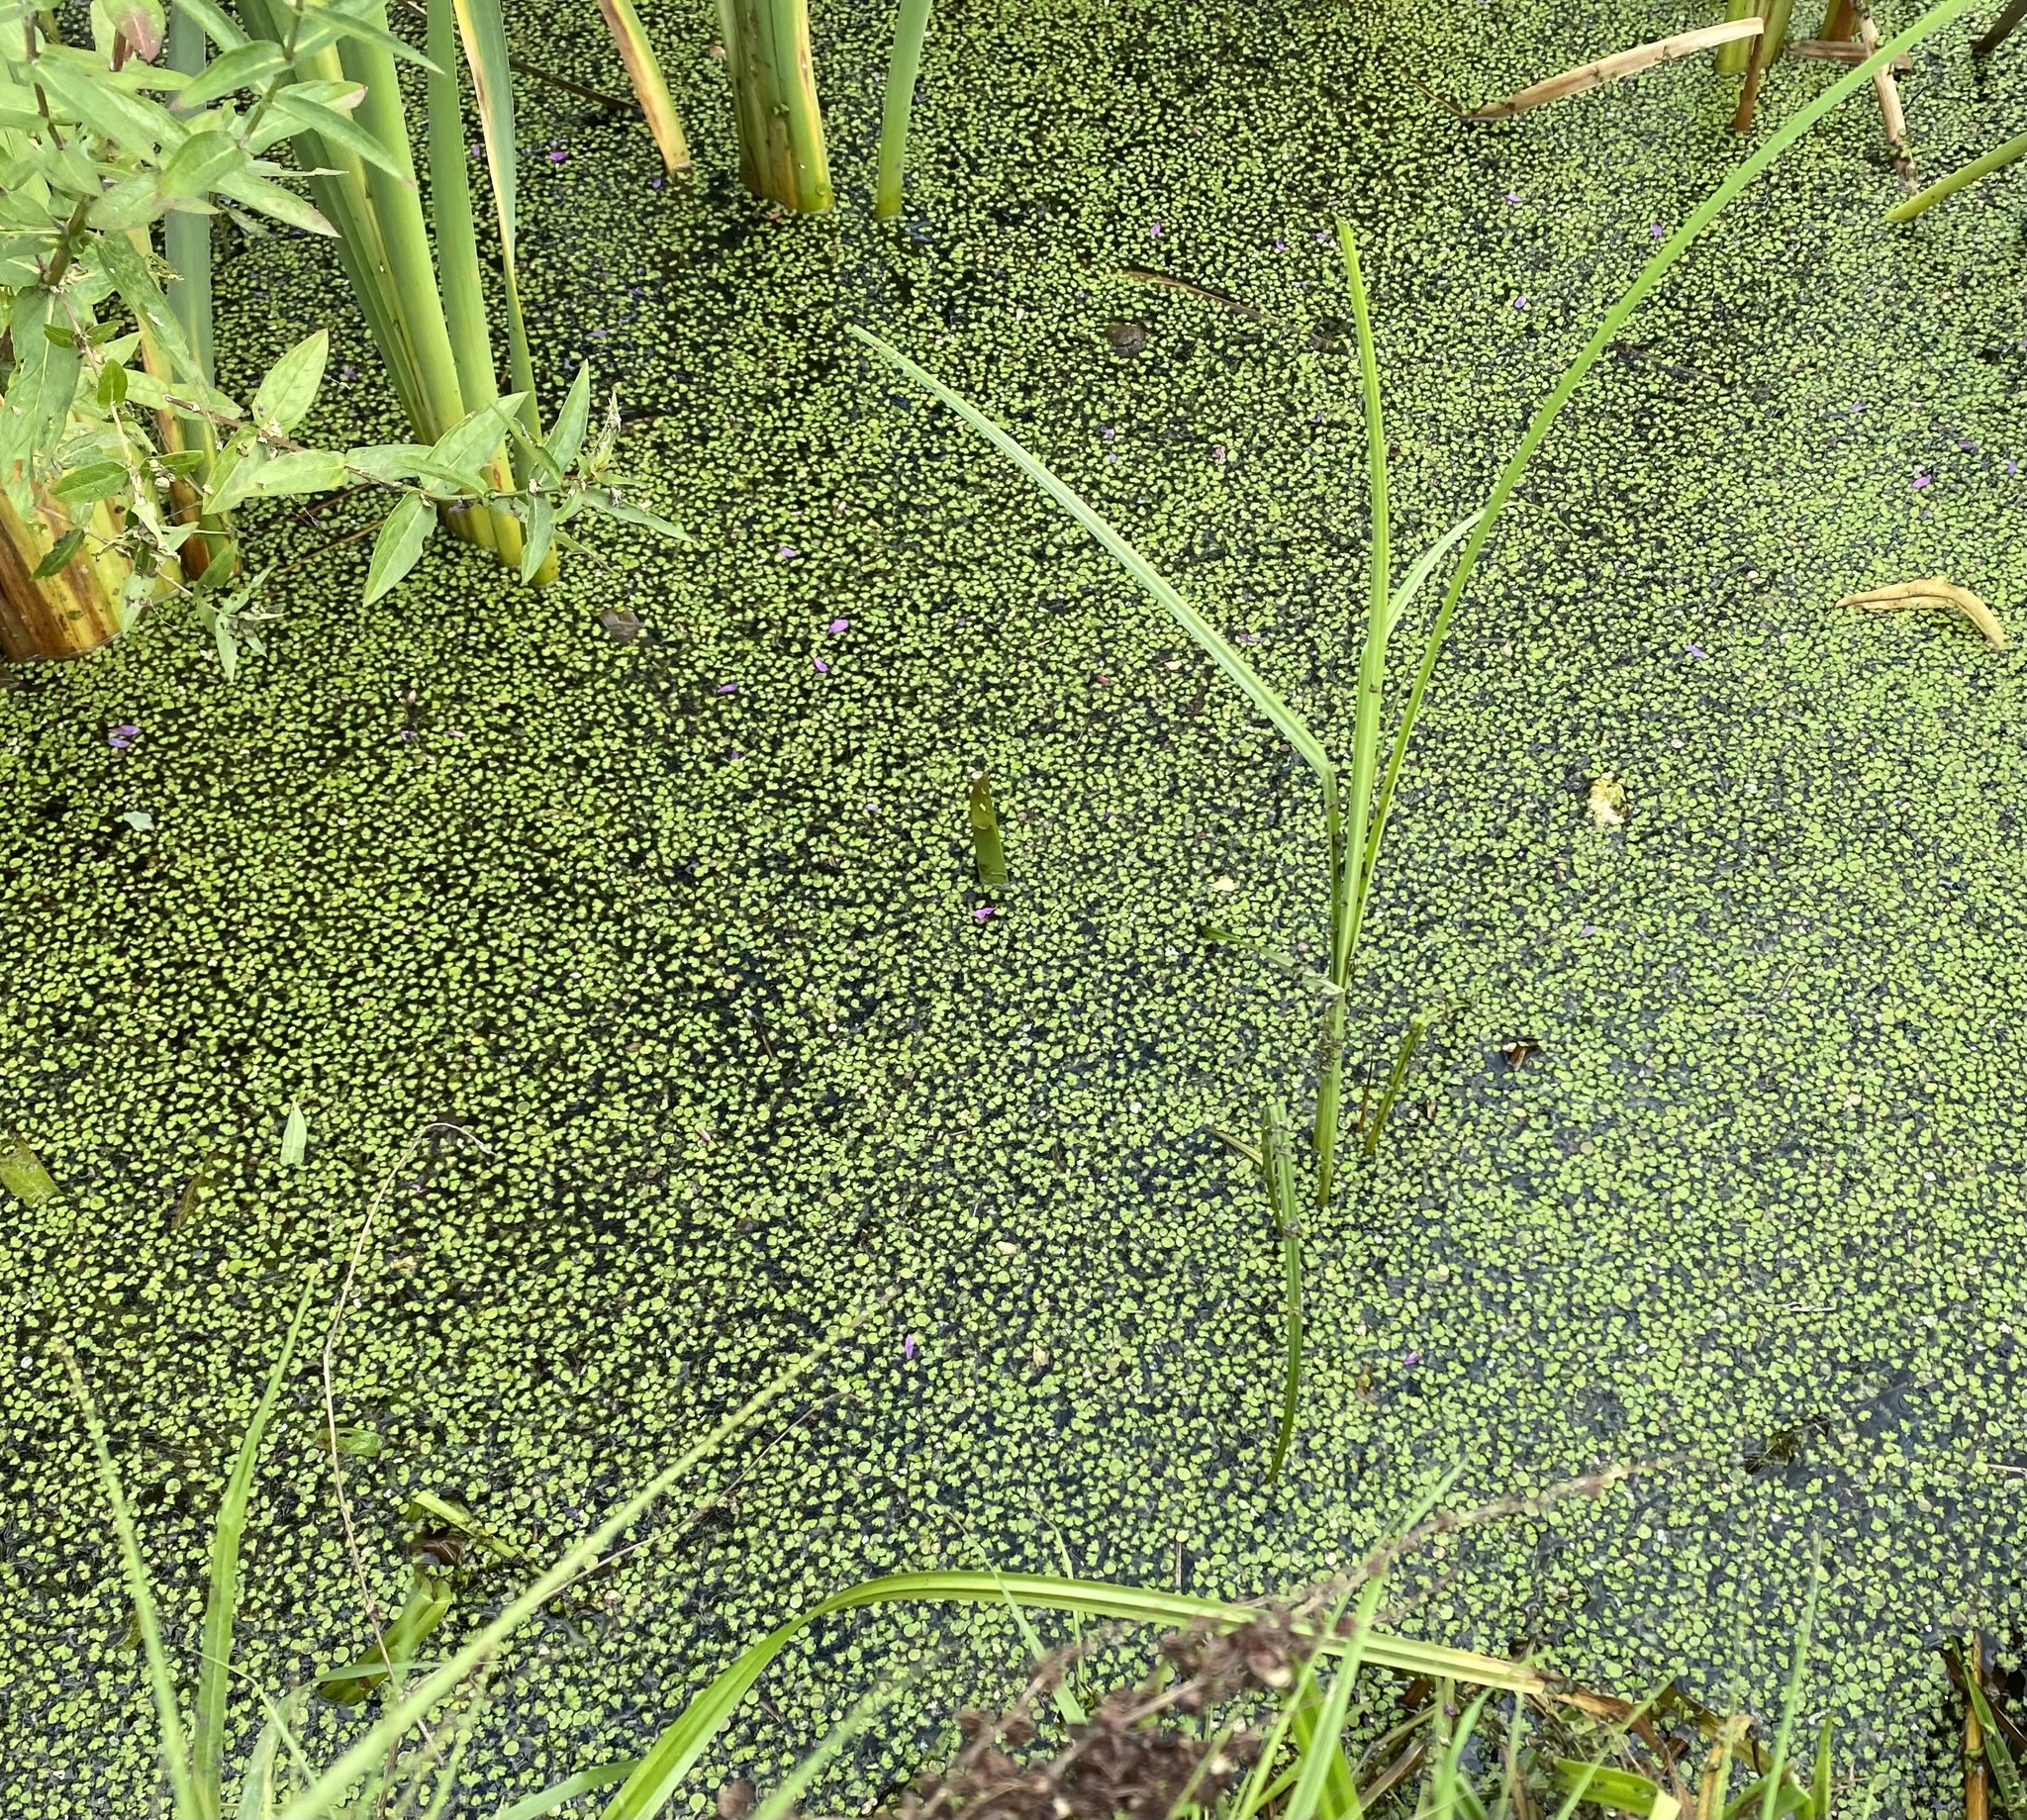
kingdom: Plantae
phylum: Marchantiophyta
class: Marchantiopsida
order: Marchantiales
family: Ricciaceae
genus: Ricciocarpos
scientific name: Ricciocarpos natans
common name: Purple-fringed liverwort
